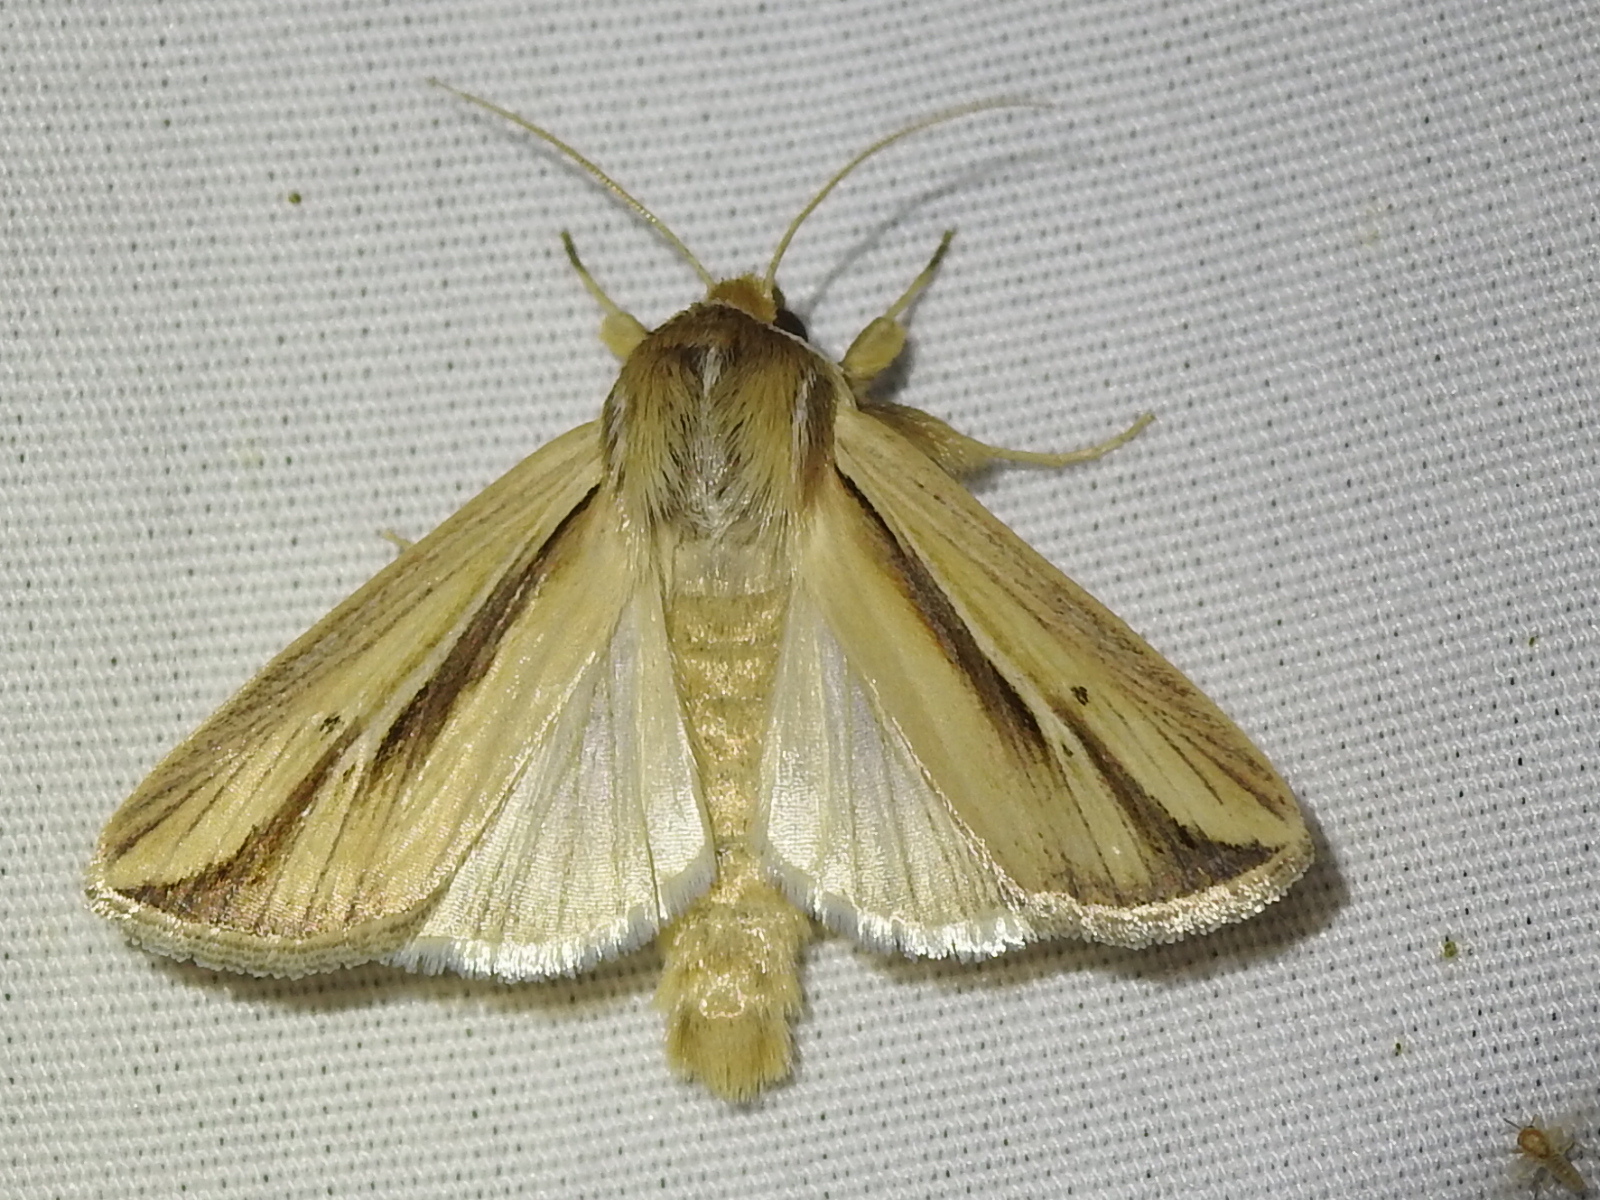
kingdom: Animalia
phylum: Arthropoda
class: Insecta
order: Lepidoptera
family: Noctuidae
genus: Dargida
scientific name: Dargida diffusa
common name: Wheat head armyworm
